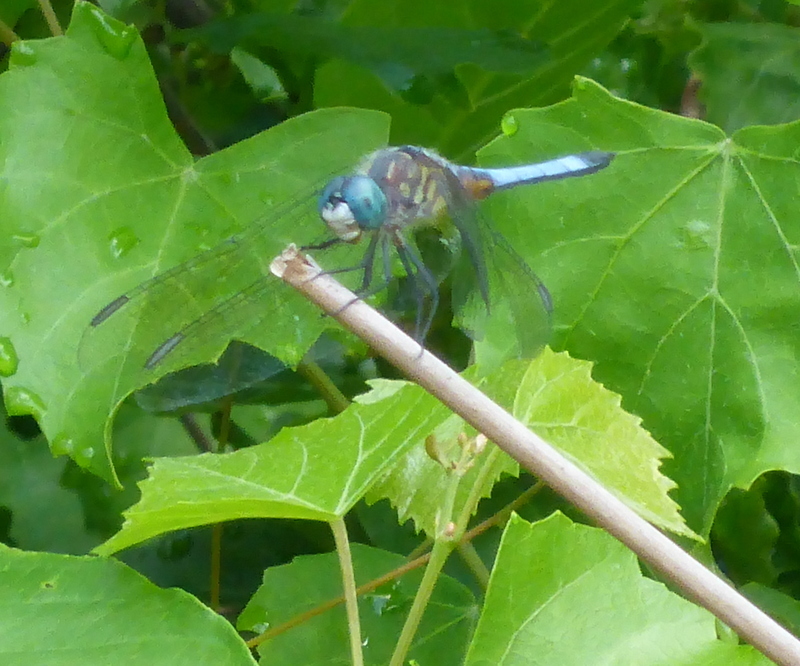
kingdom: Animalia
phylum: Arthropoda
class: Insecta
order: Odonata
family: Libellulidae
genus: Pachydiplax
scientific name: Pachydiplax longipennis
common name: Blue dasher
